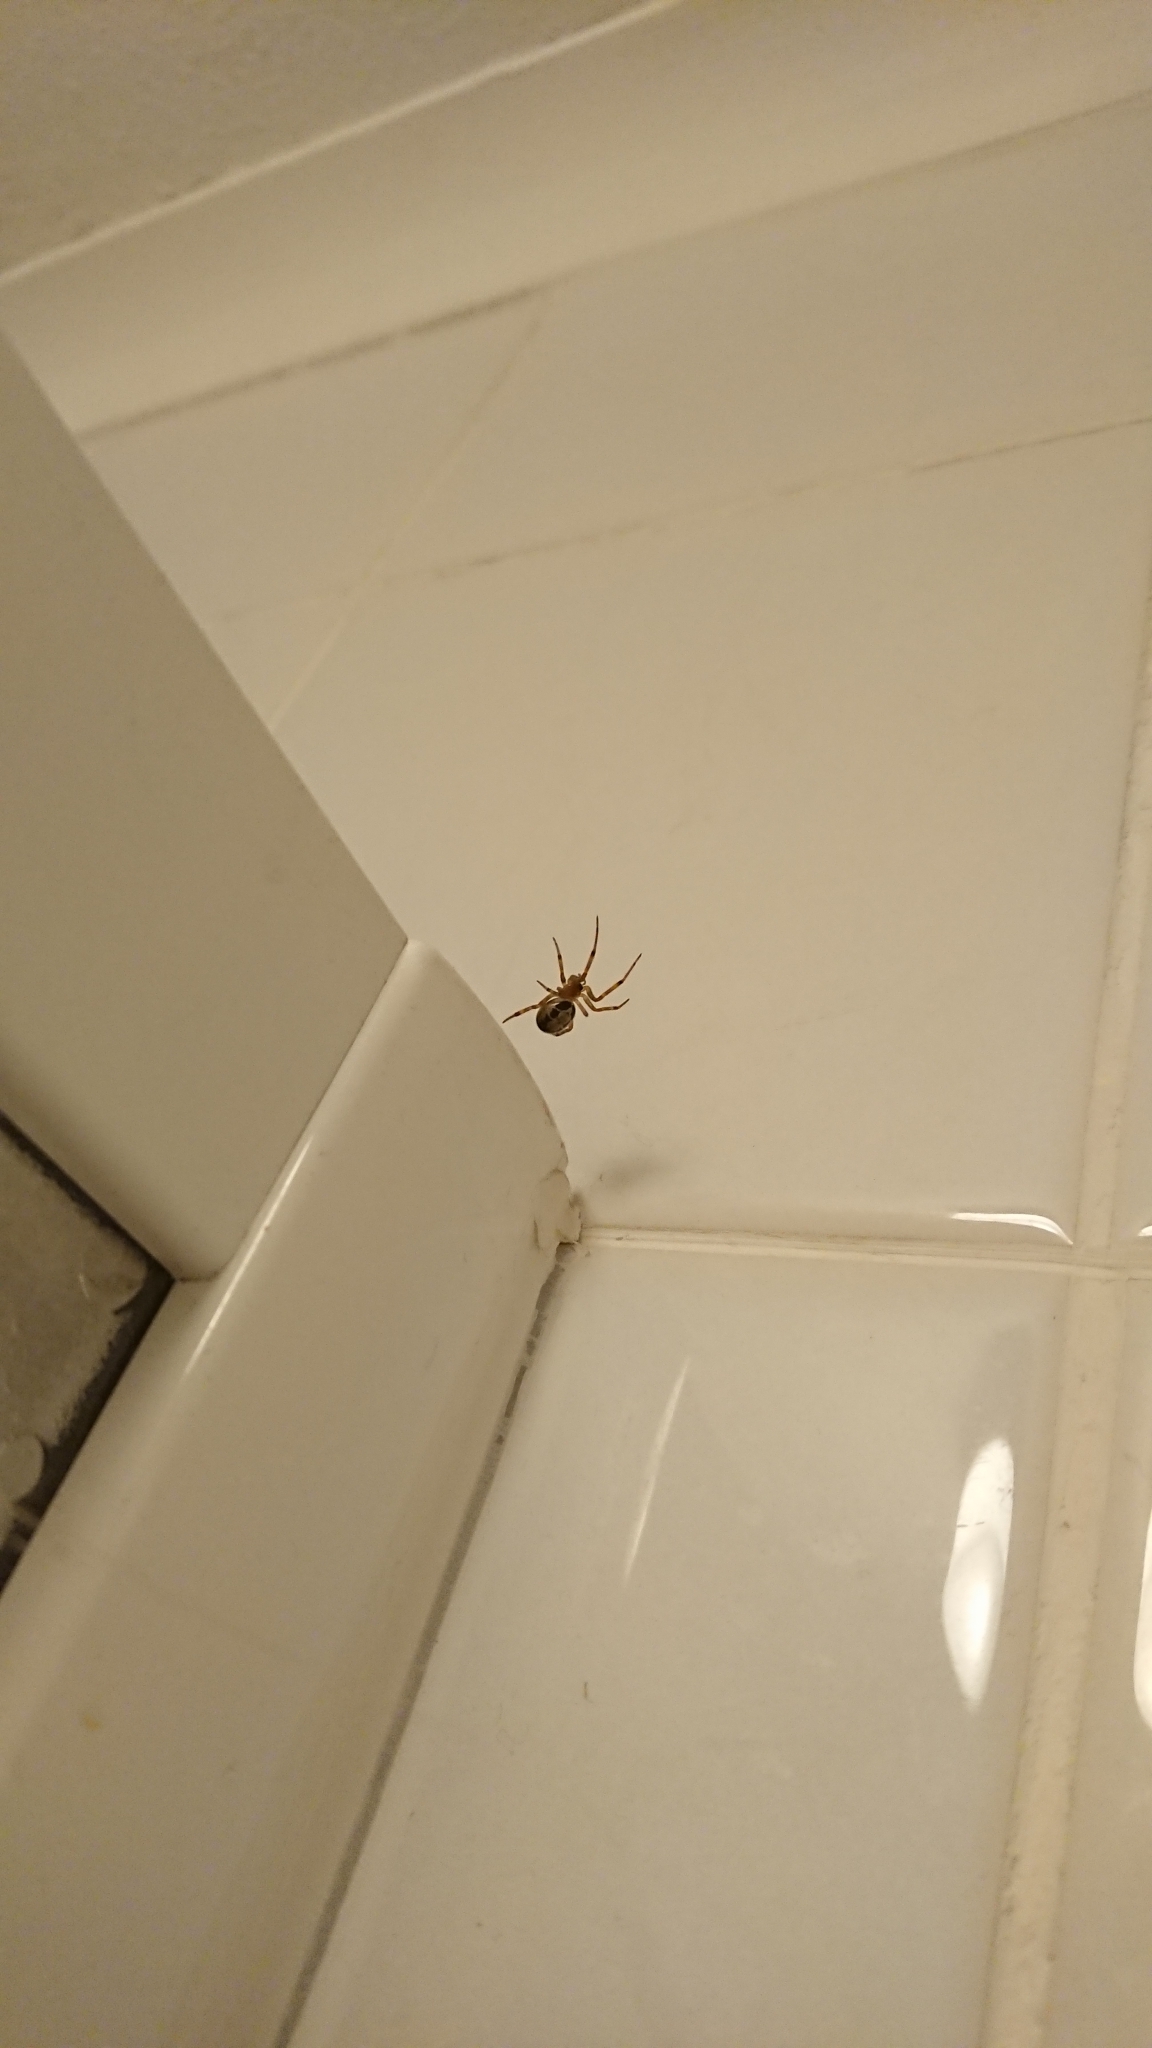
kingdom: Animalia
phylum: Arthropoda
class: Arachnida
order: Araneae
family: Theridiidae
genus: Steatoda
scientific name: Steatoda nobilis
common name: Cobweb weaver
